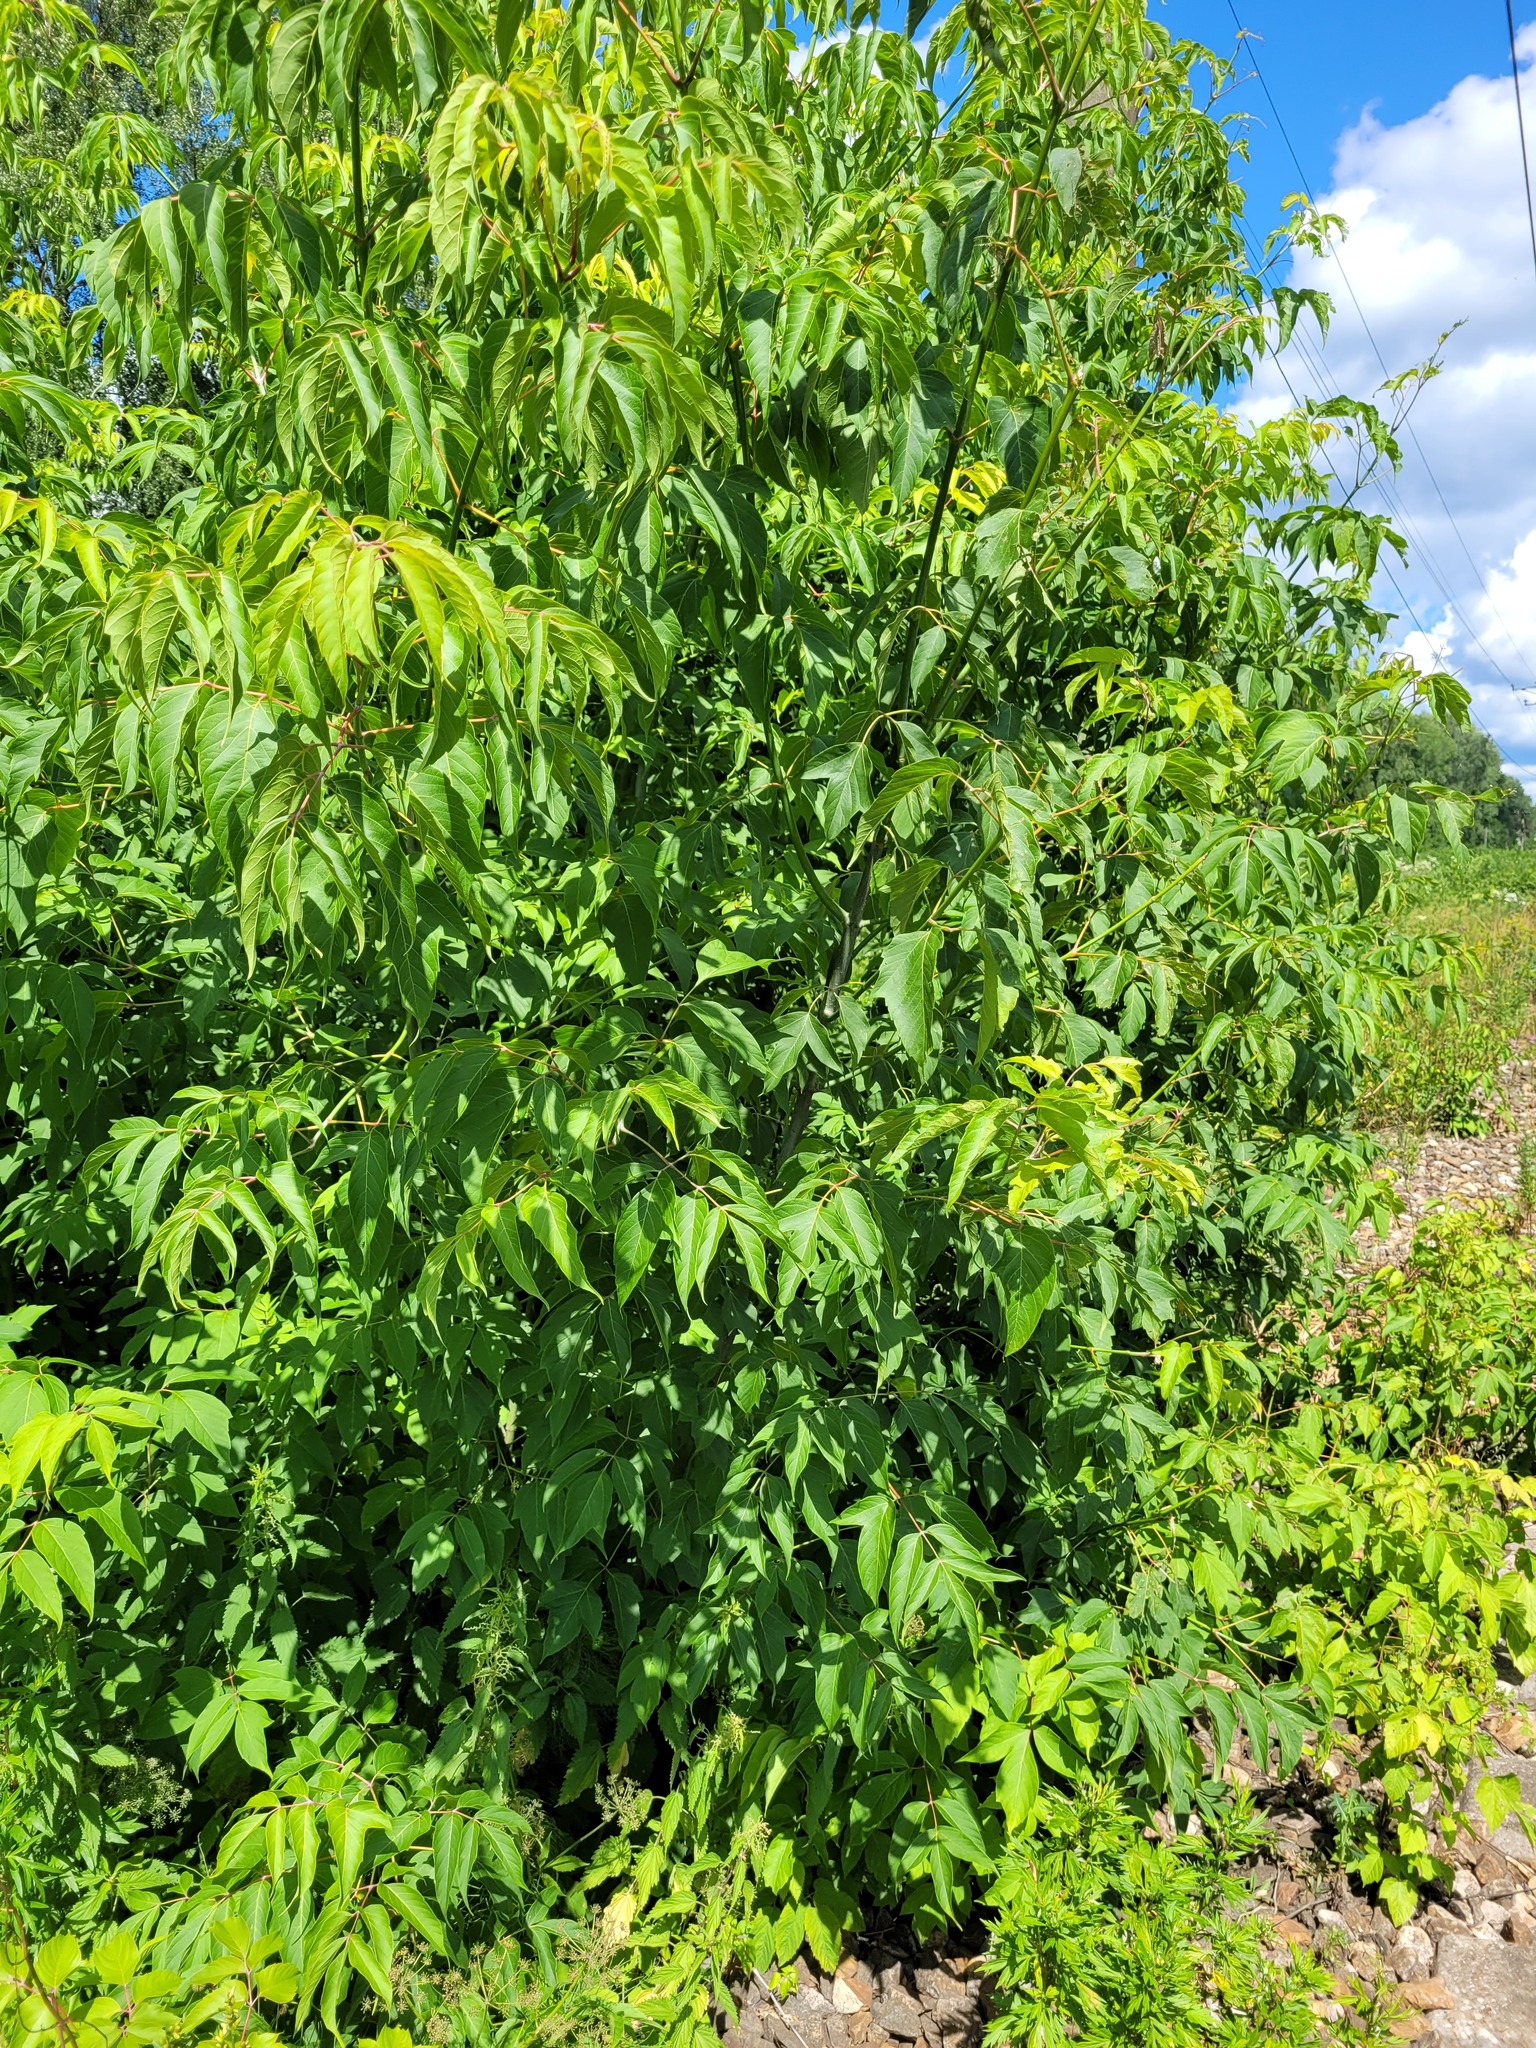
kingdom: Plantae
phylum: Tracheophyta
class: Magnoliopsida
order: Sapindales
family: Sapindaceae
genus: Acer
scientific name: Acer negundo
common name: Ashleaf maple
